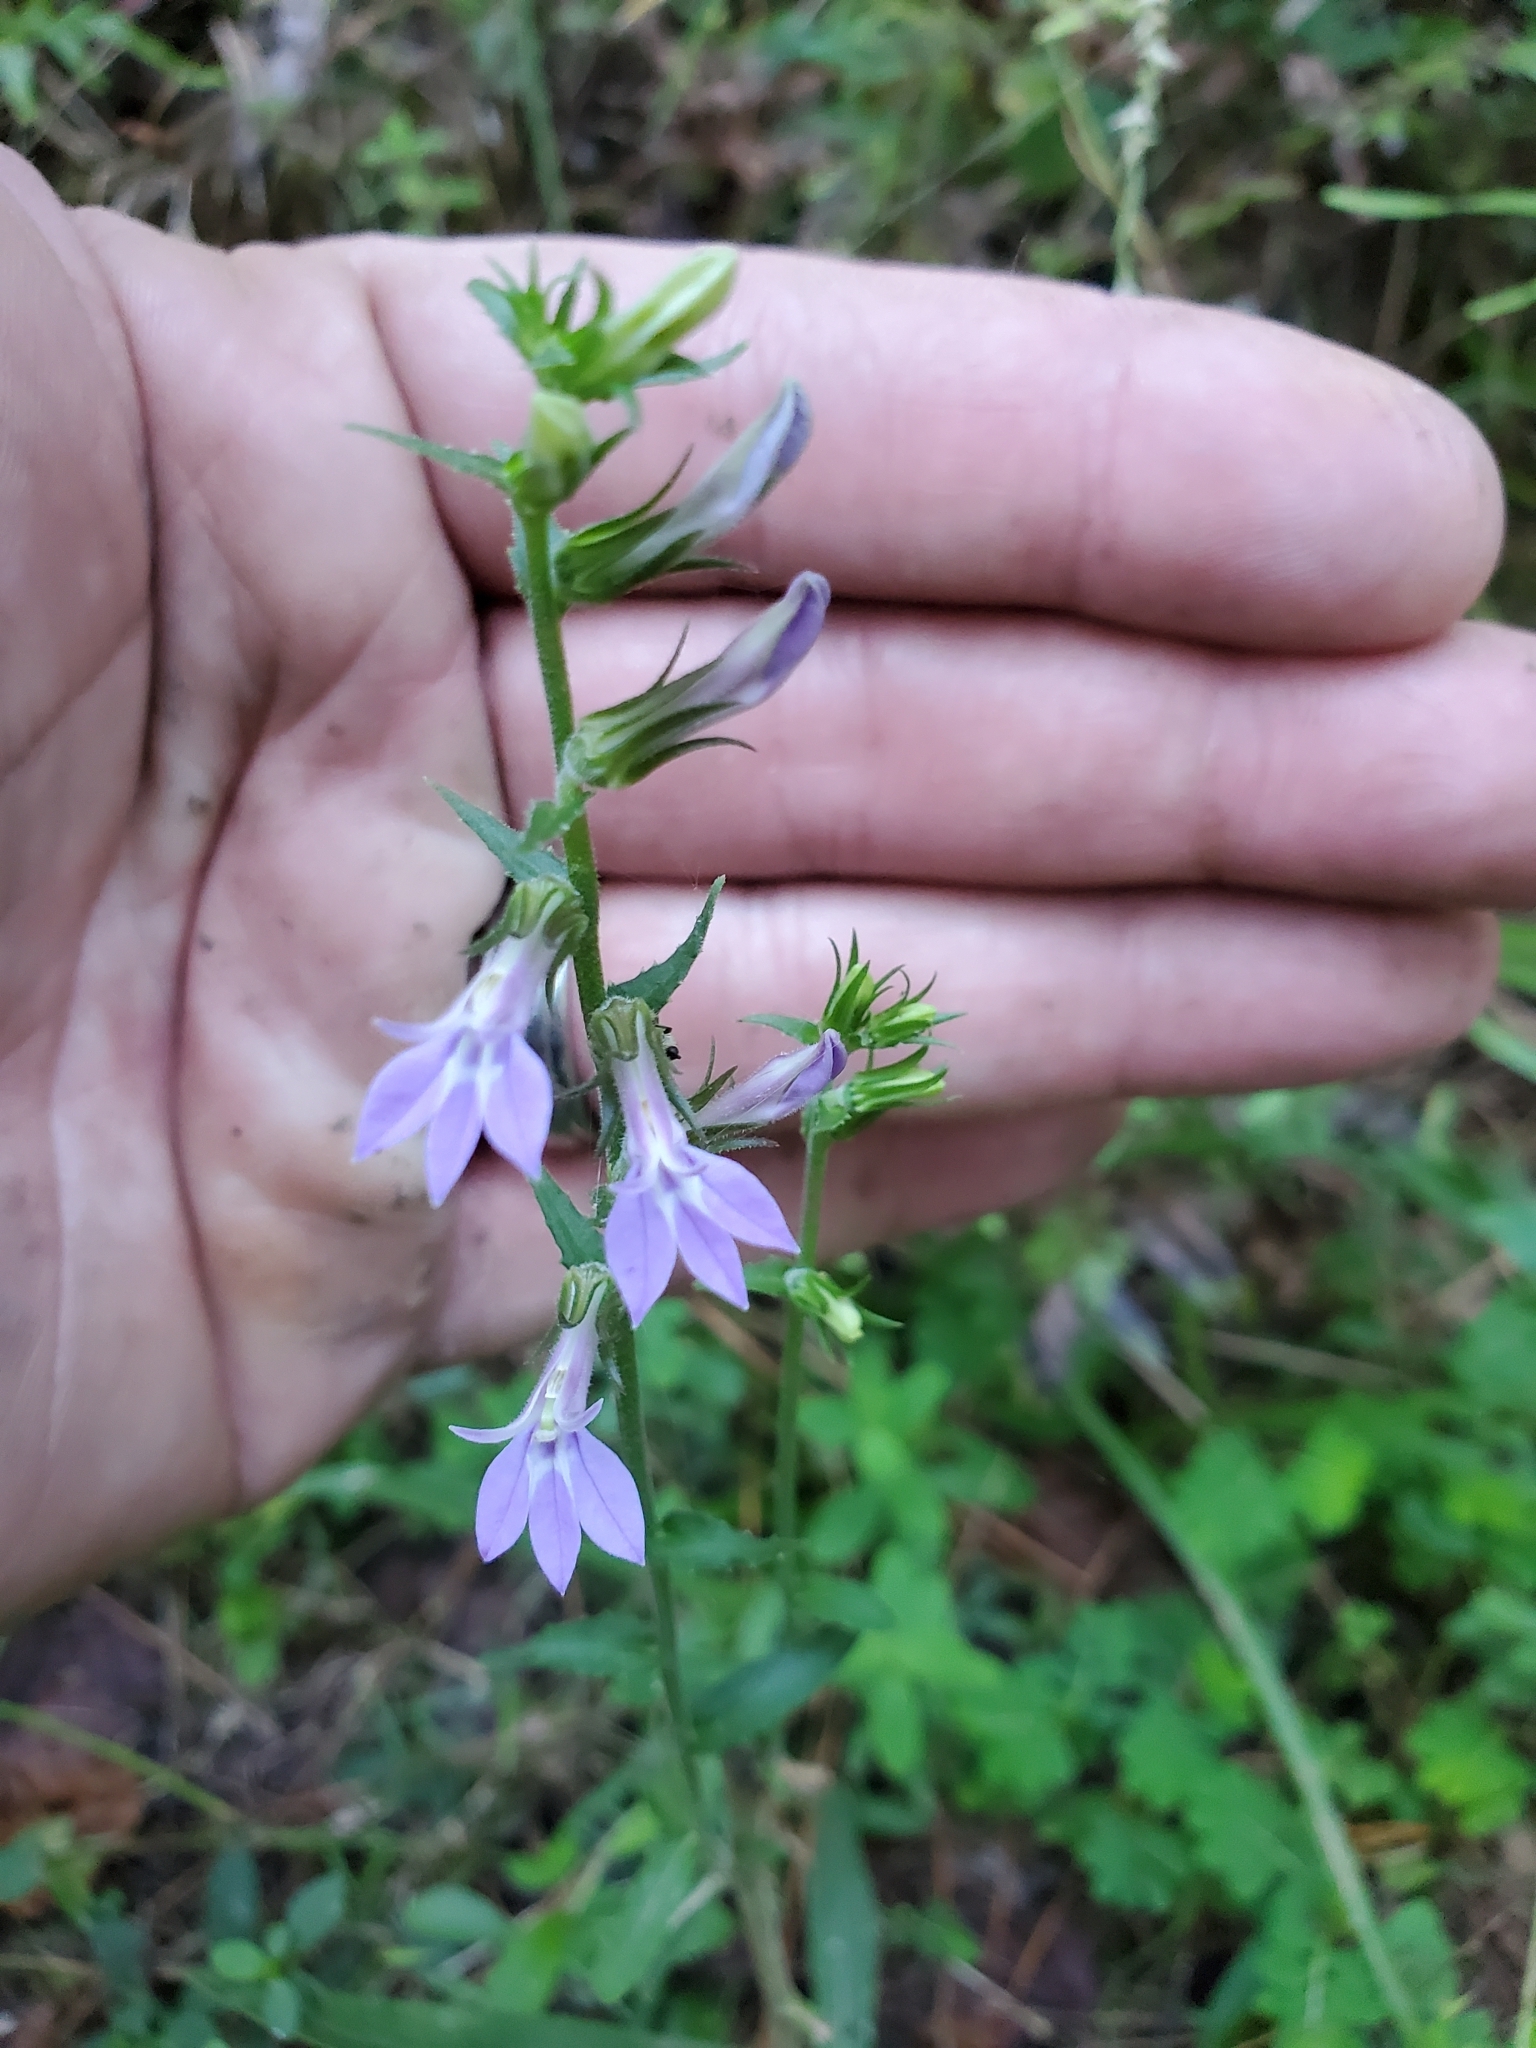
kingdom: Plantae
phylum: Tracheophyta
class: Magnoliopsida
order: Asterales
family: Campanulaceae
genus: Lobelia
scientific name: Lobelia puberula
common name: Purple dewdrop
